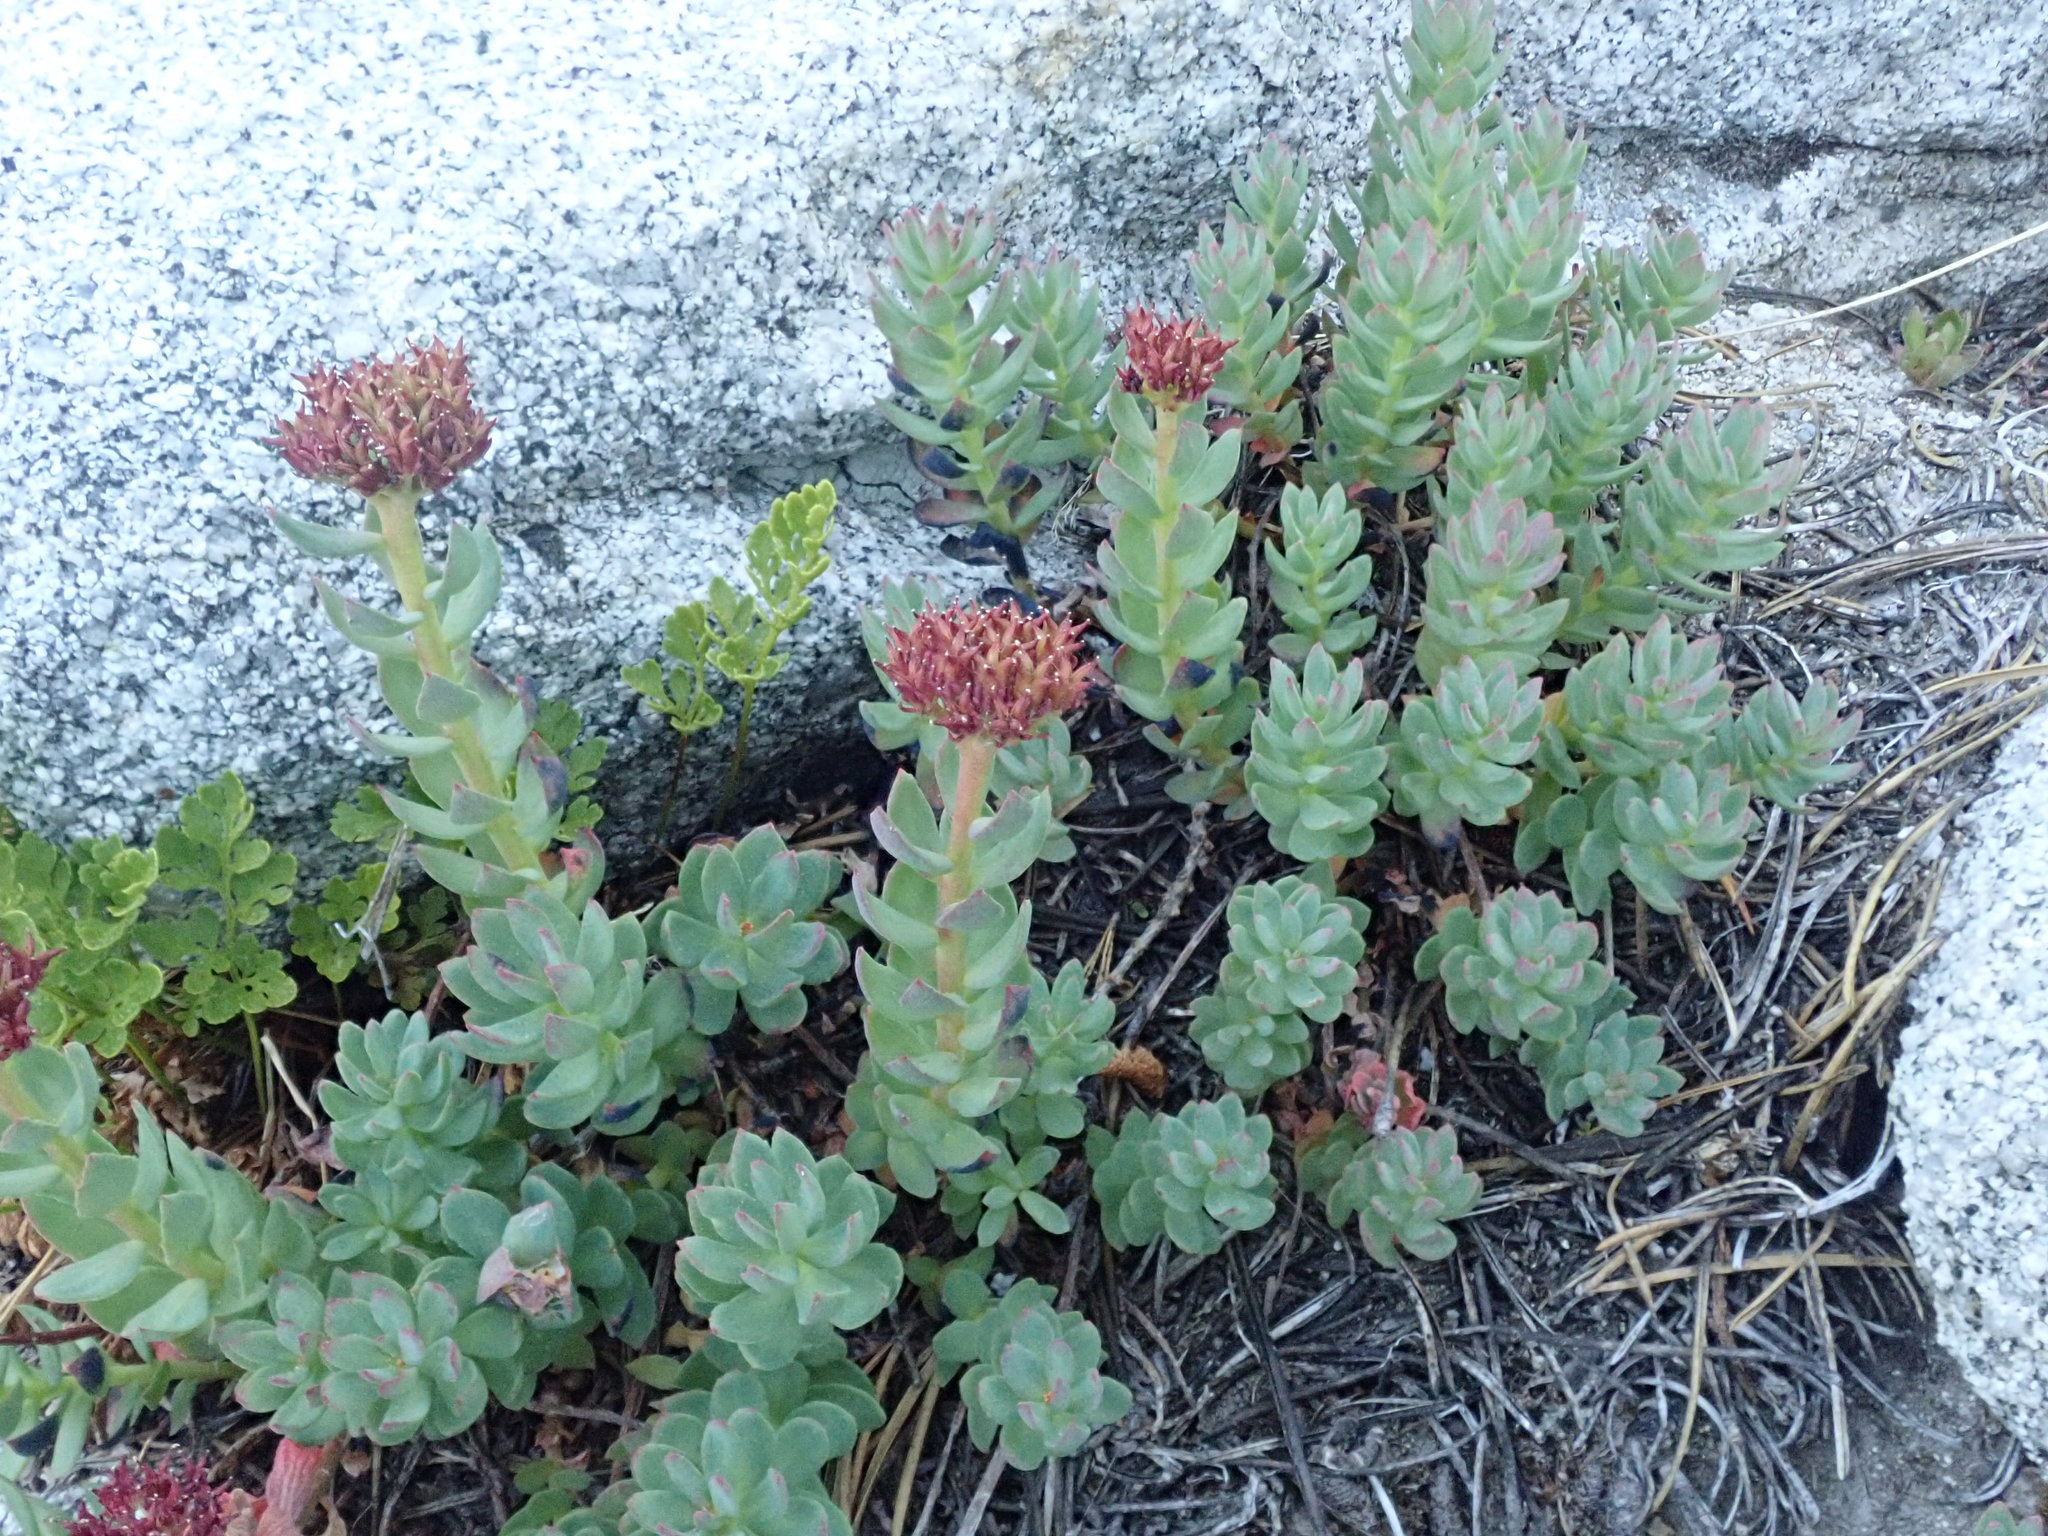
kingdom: Plantae
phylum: Tracheophyta
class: Magnoliopsida
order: Saxifragales
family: Crassulaceae
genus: Rhodiola
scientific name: Rhodiola integrifolia
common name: Western roseroot
